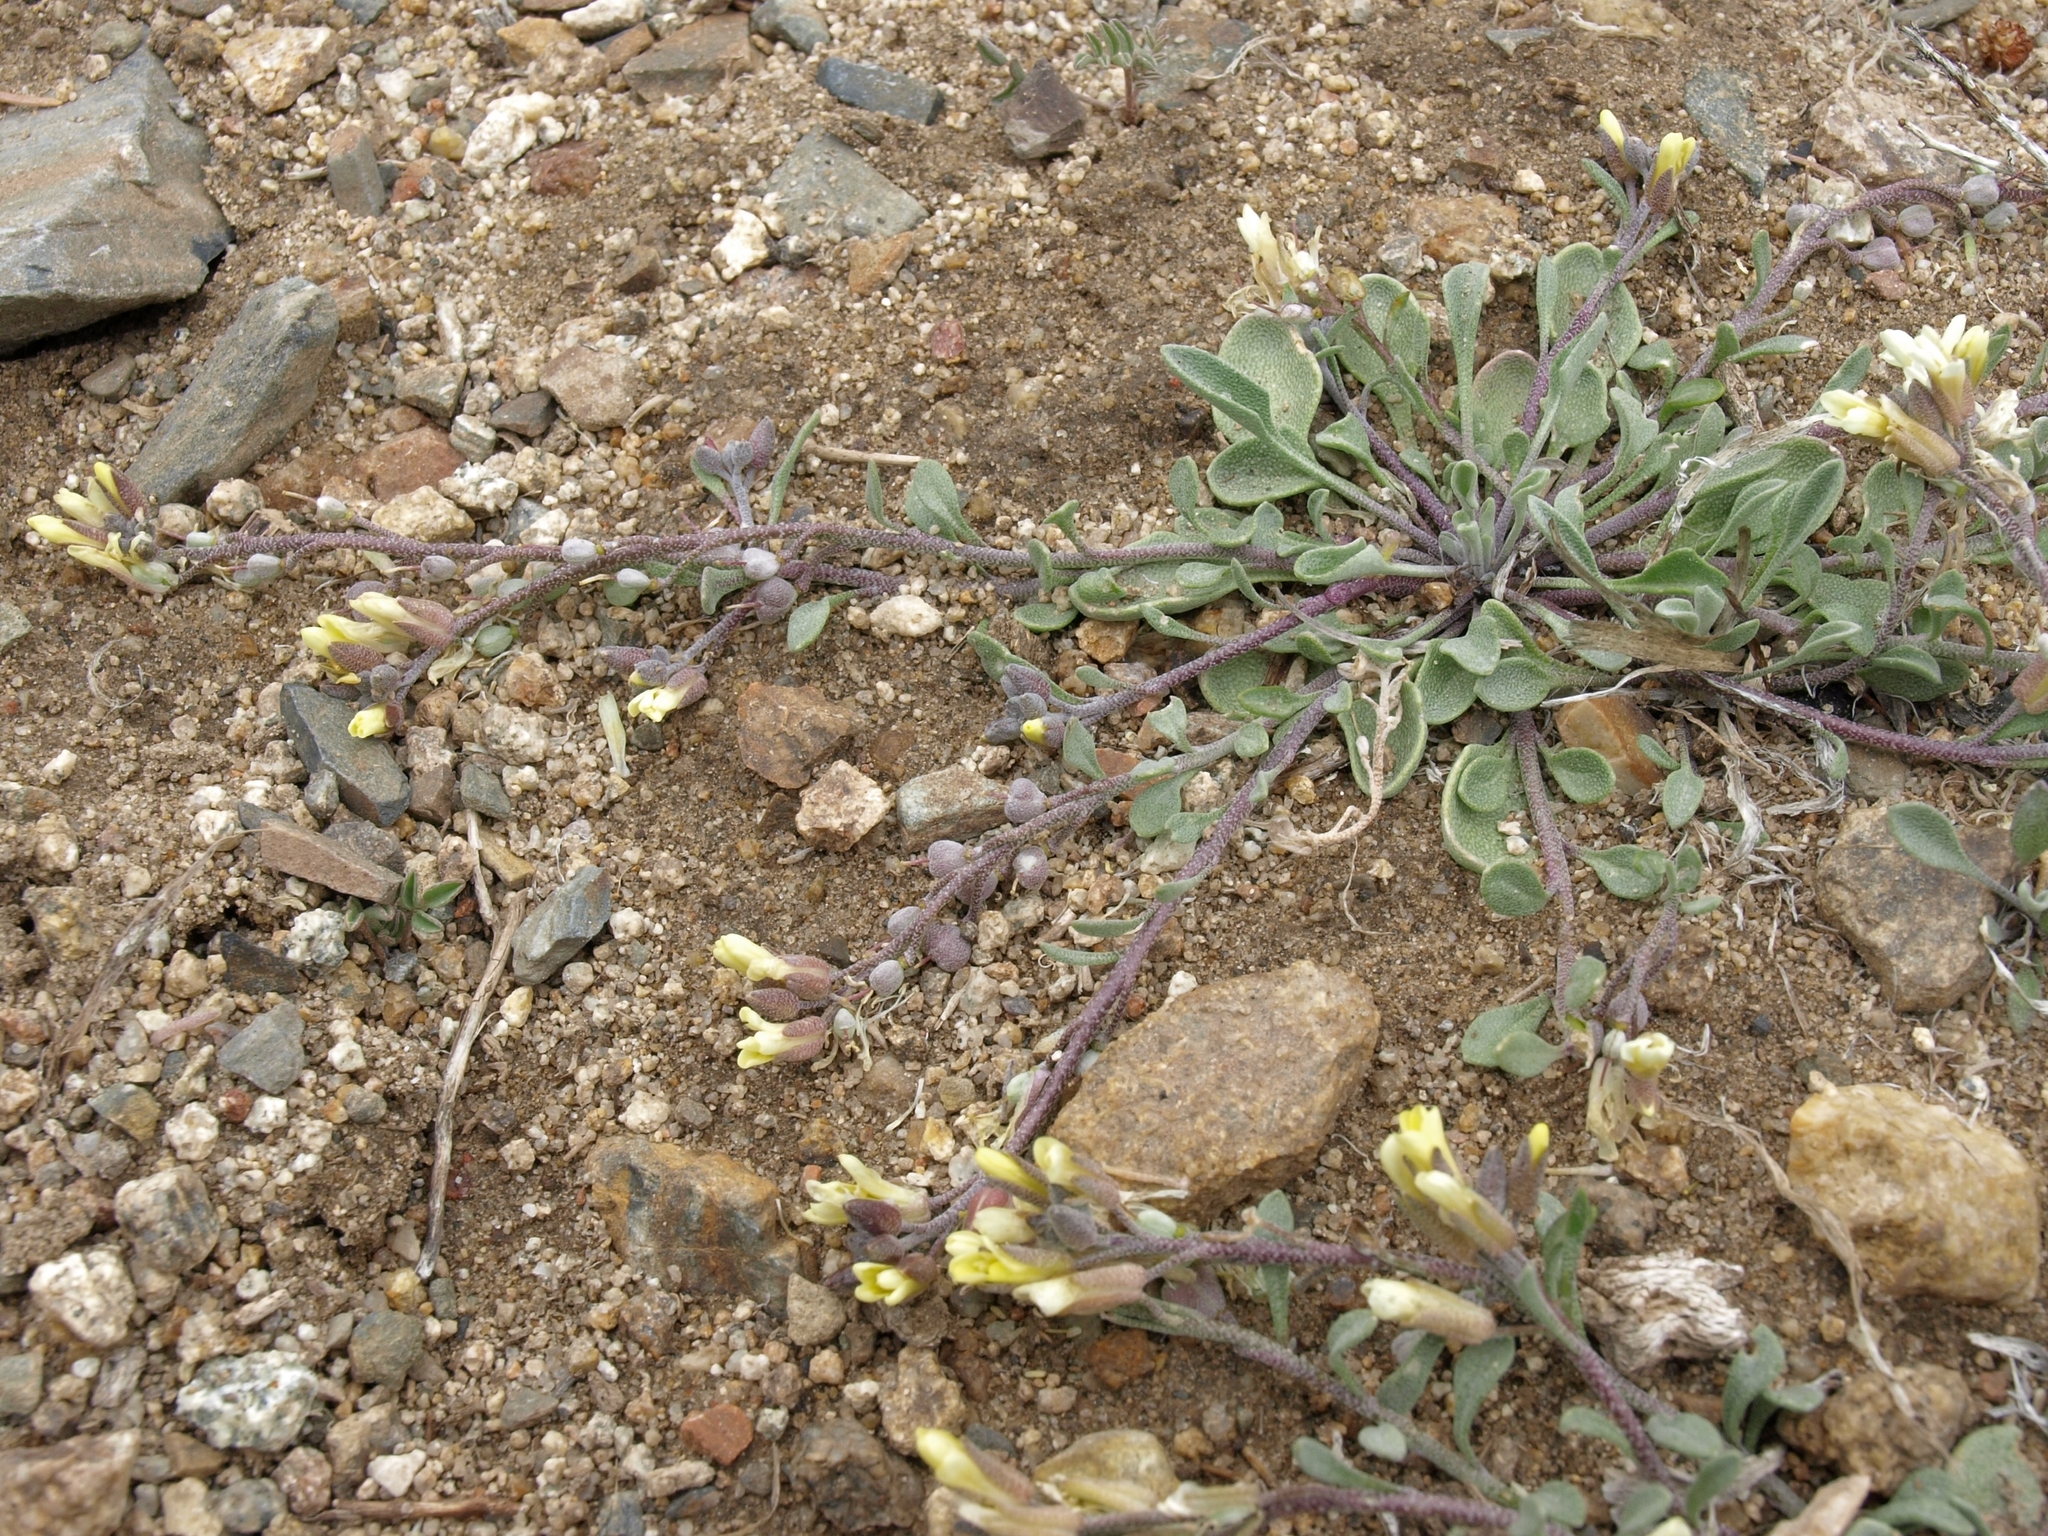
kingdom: Plantae
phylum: Tracheophyta
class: Magnoliopsida
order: Brassicales
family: Brassicaceae
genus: Physaria
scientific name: Physaria kingii
